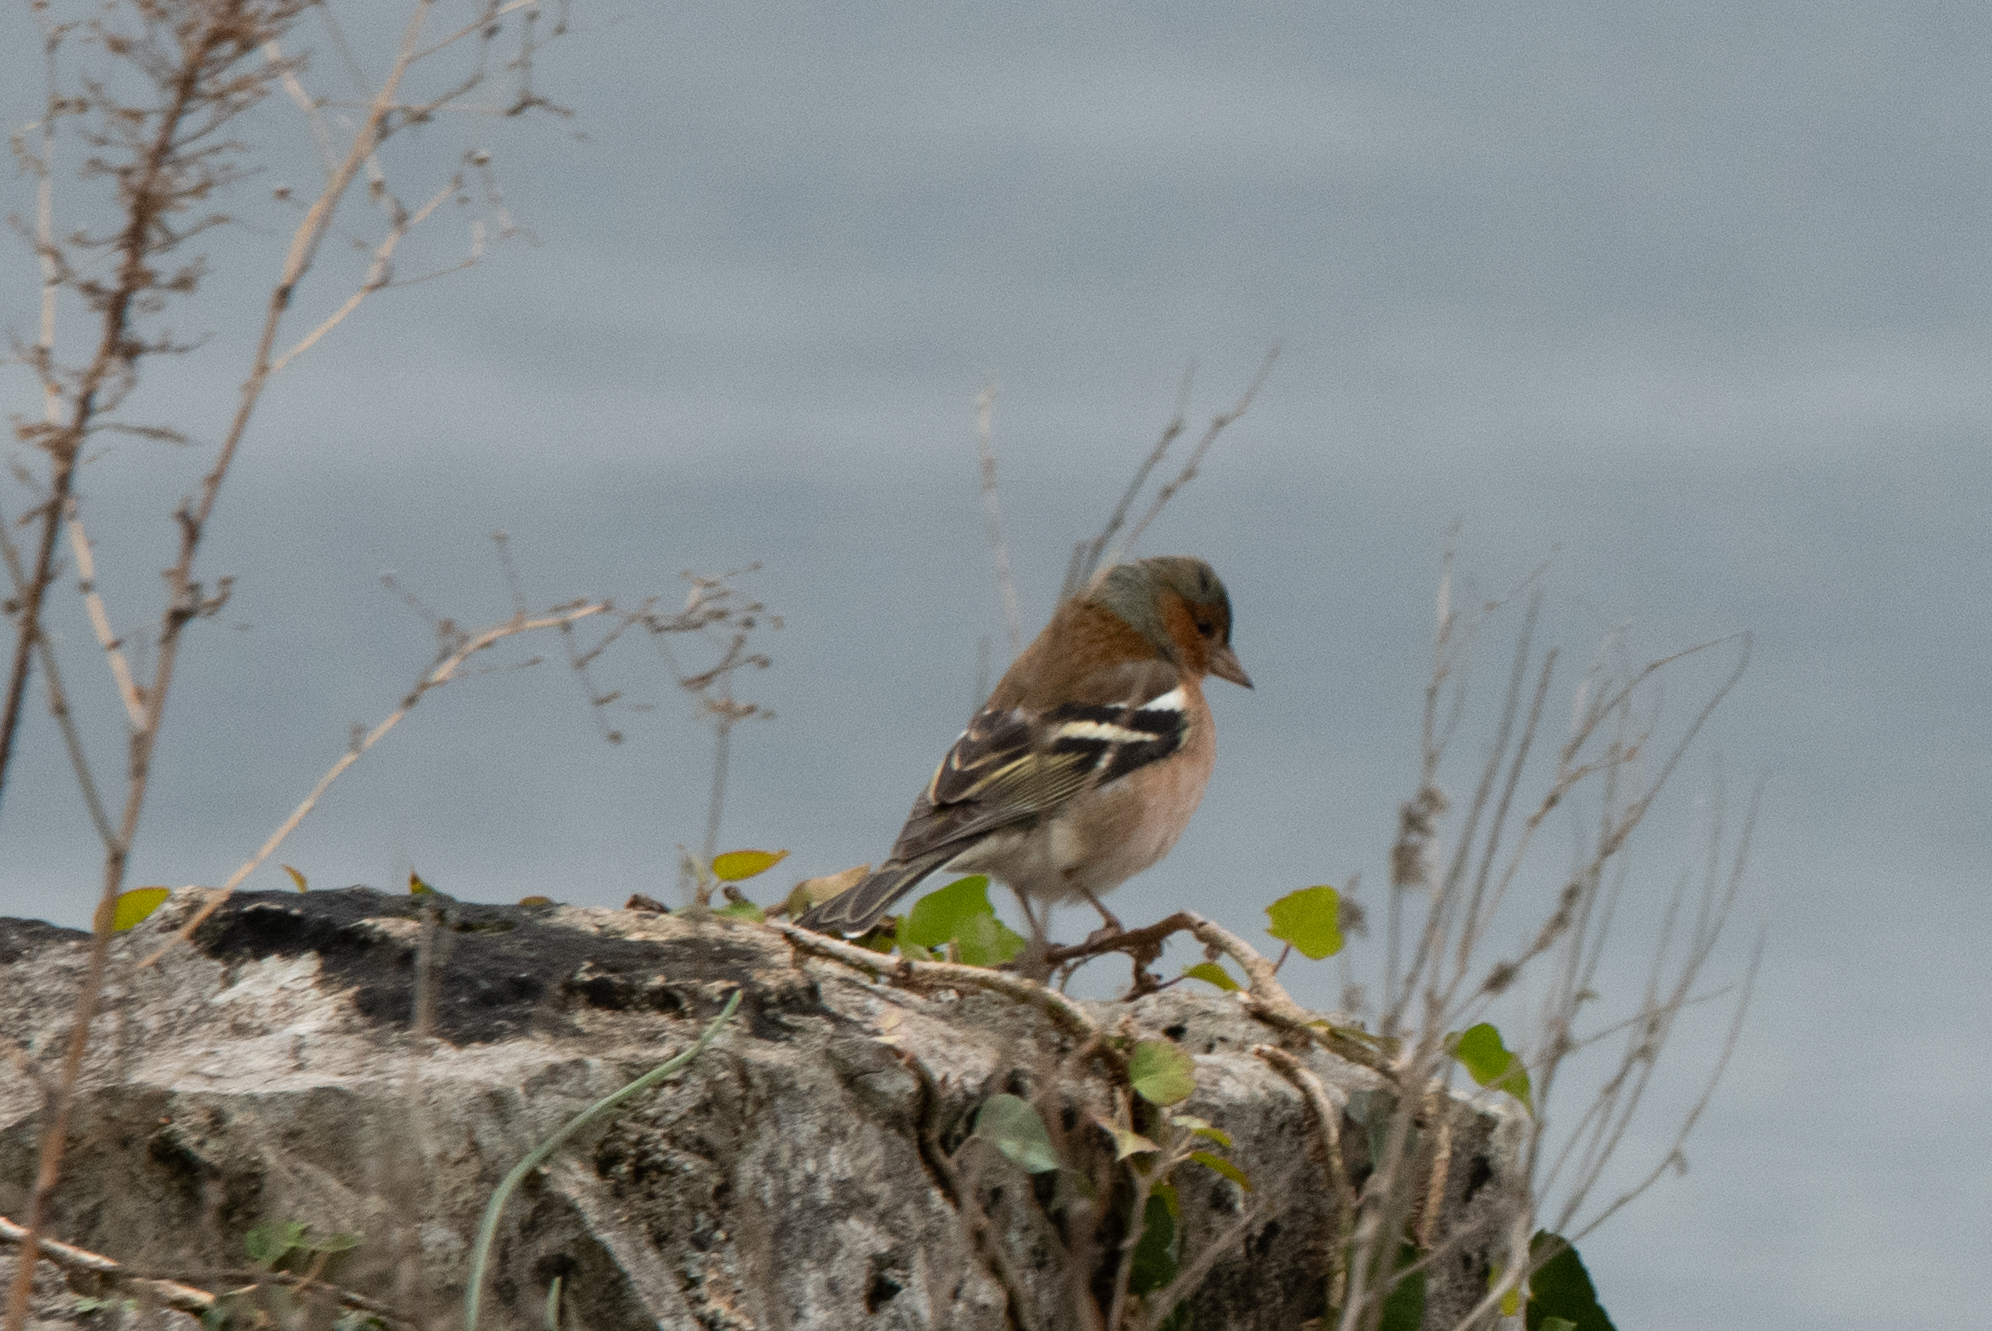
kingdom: Animalia
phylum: Chordata
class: Aves
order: Passeriformes
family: Fringillidae
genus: Fringilla
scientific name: Fringilla coelebs
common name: Common chaffinch
